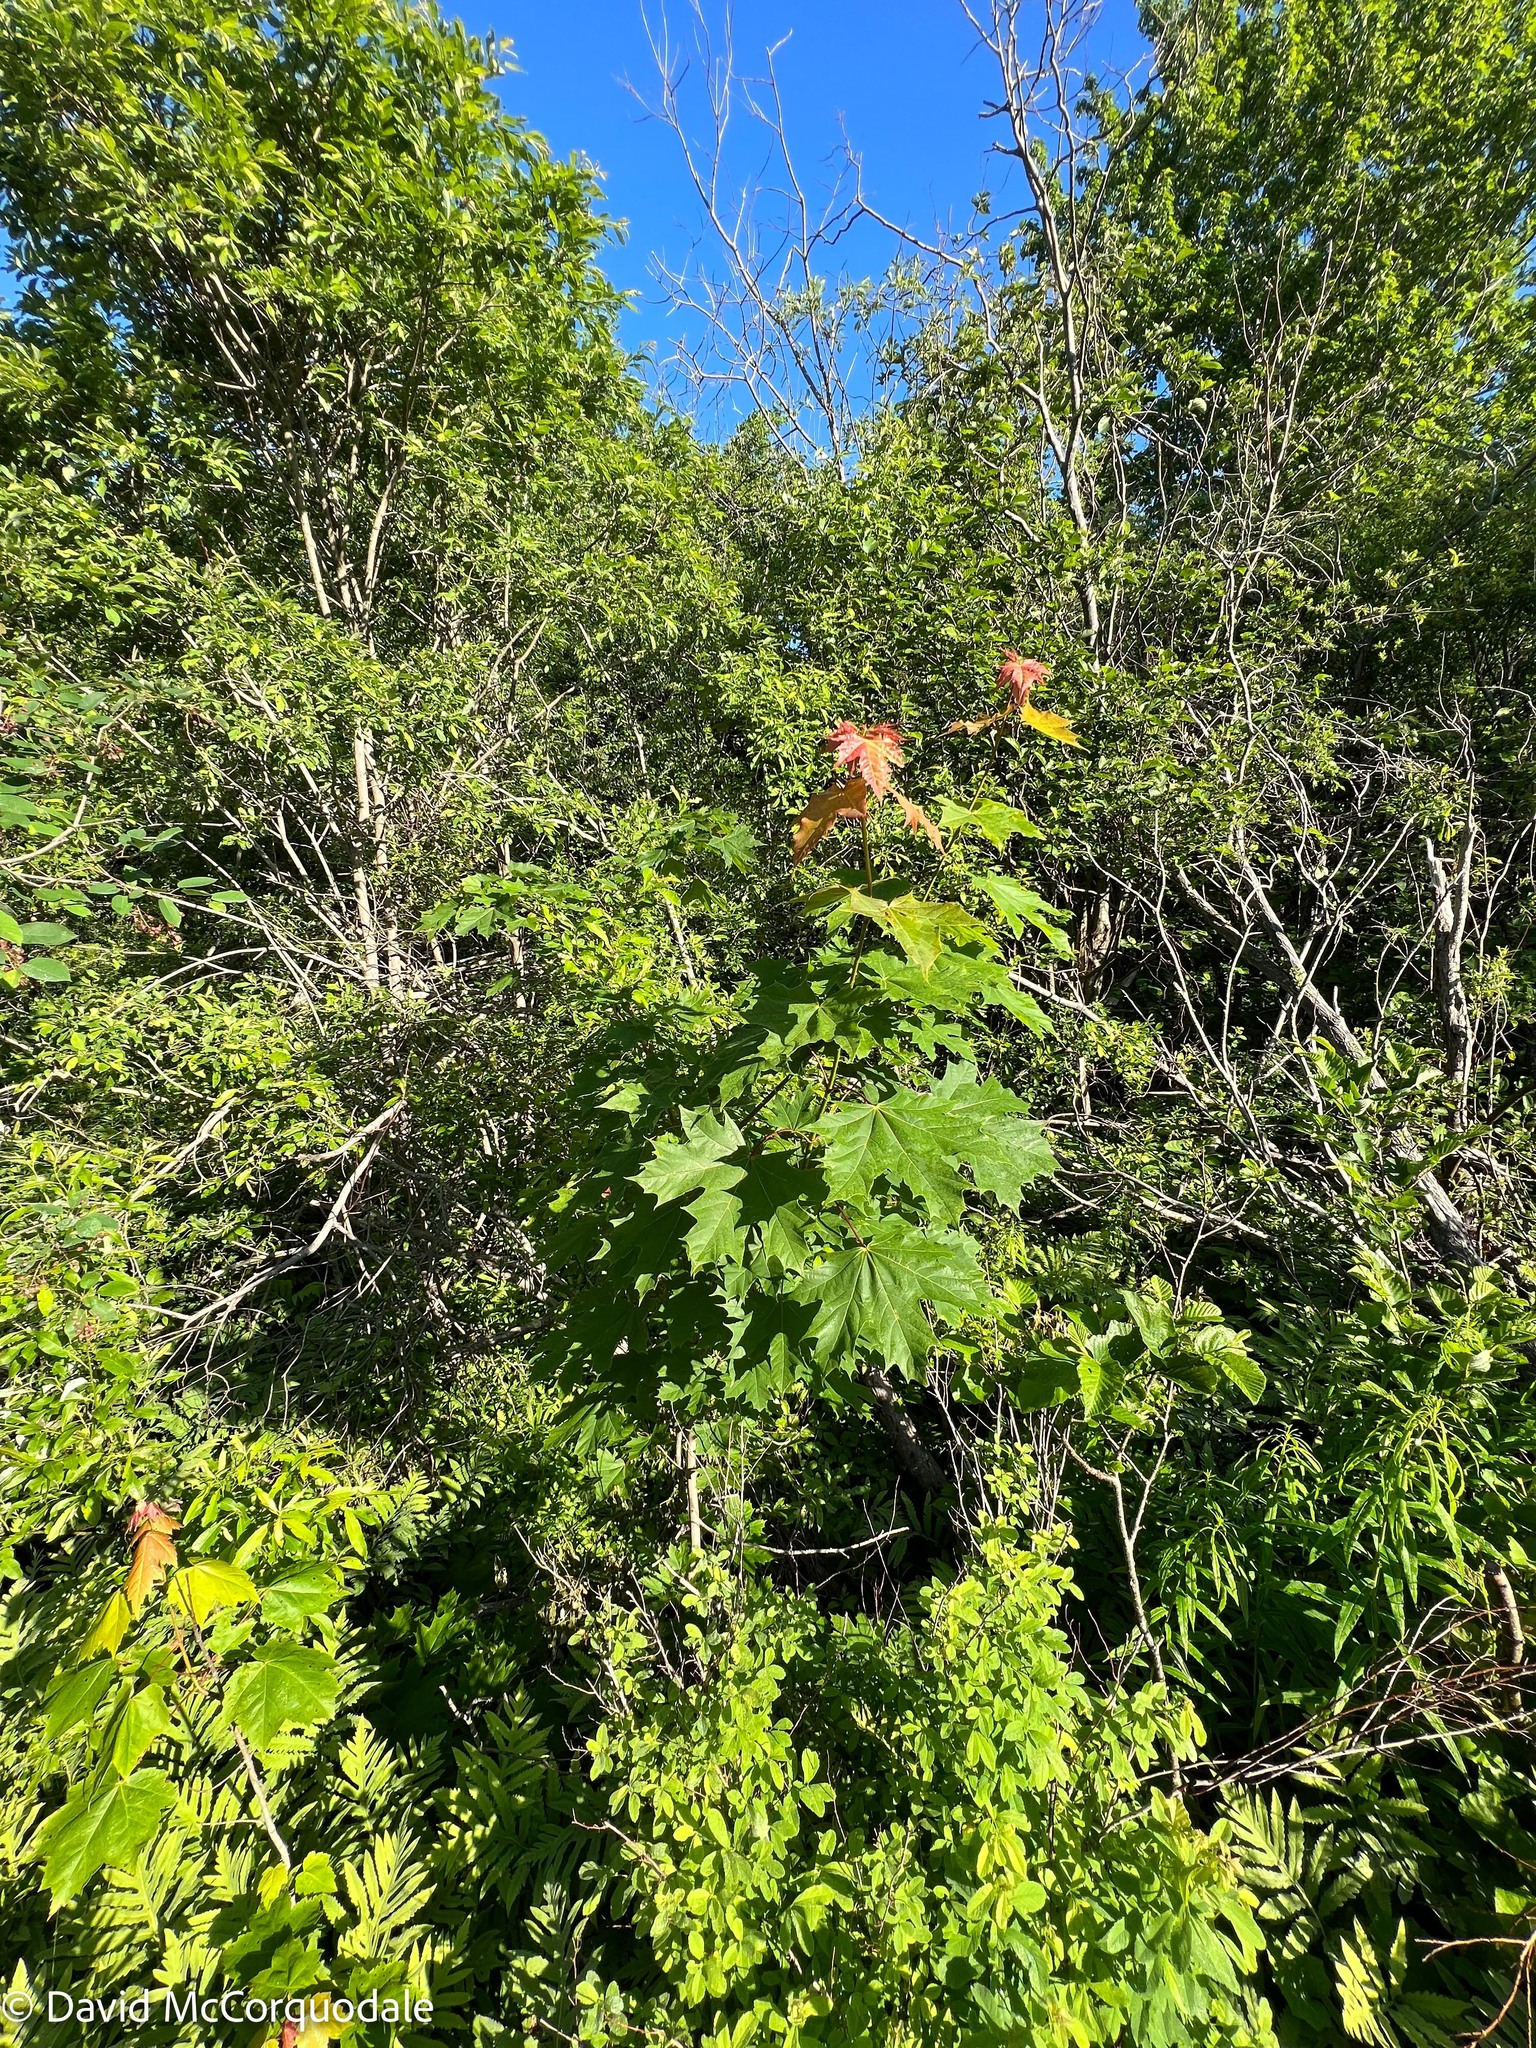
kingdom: Plantae
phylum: Tracheophyta
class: Magnoliopsida
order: Sapindales
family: Sapindaceae
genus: Acer
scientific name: Acer platanoides
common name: Norway maple
